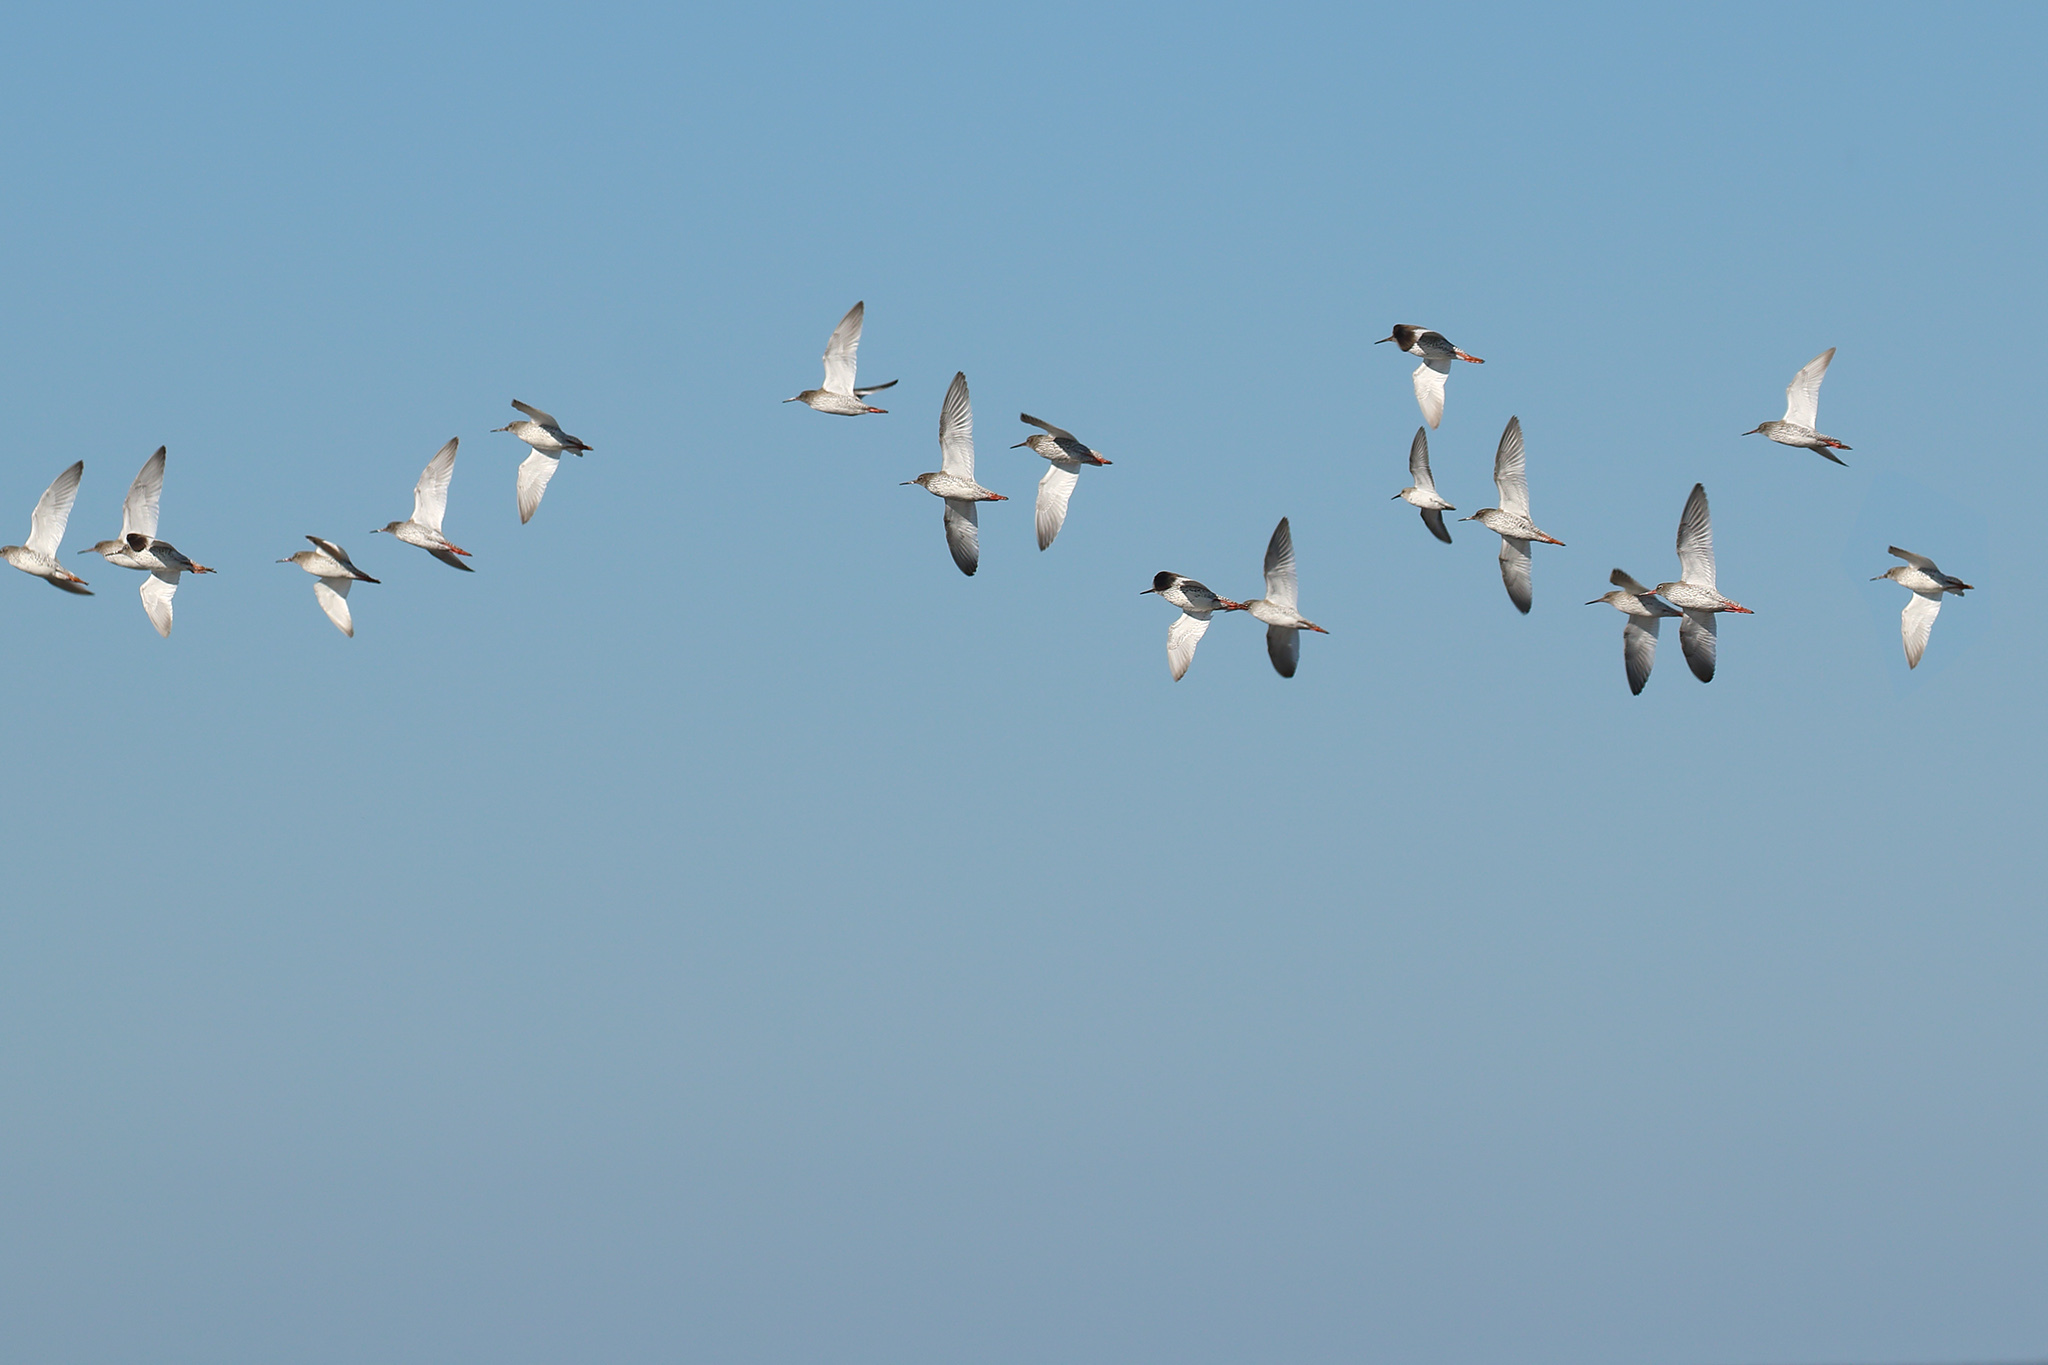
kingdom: Animalia
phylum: Chordata
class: Aves
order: Charadriiformes
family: Scolopacidae
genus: Tringa
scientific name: Tringa totanus
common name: Common redshank
